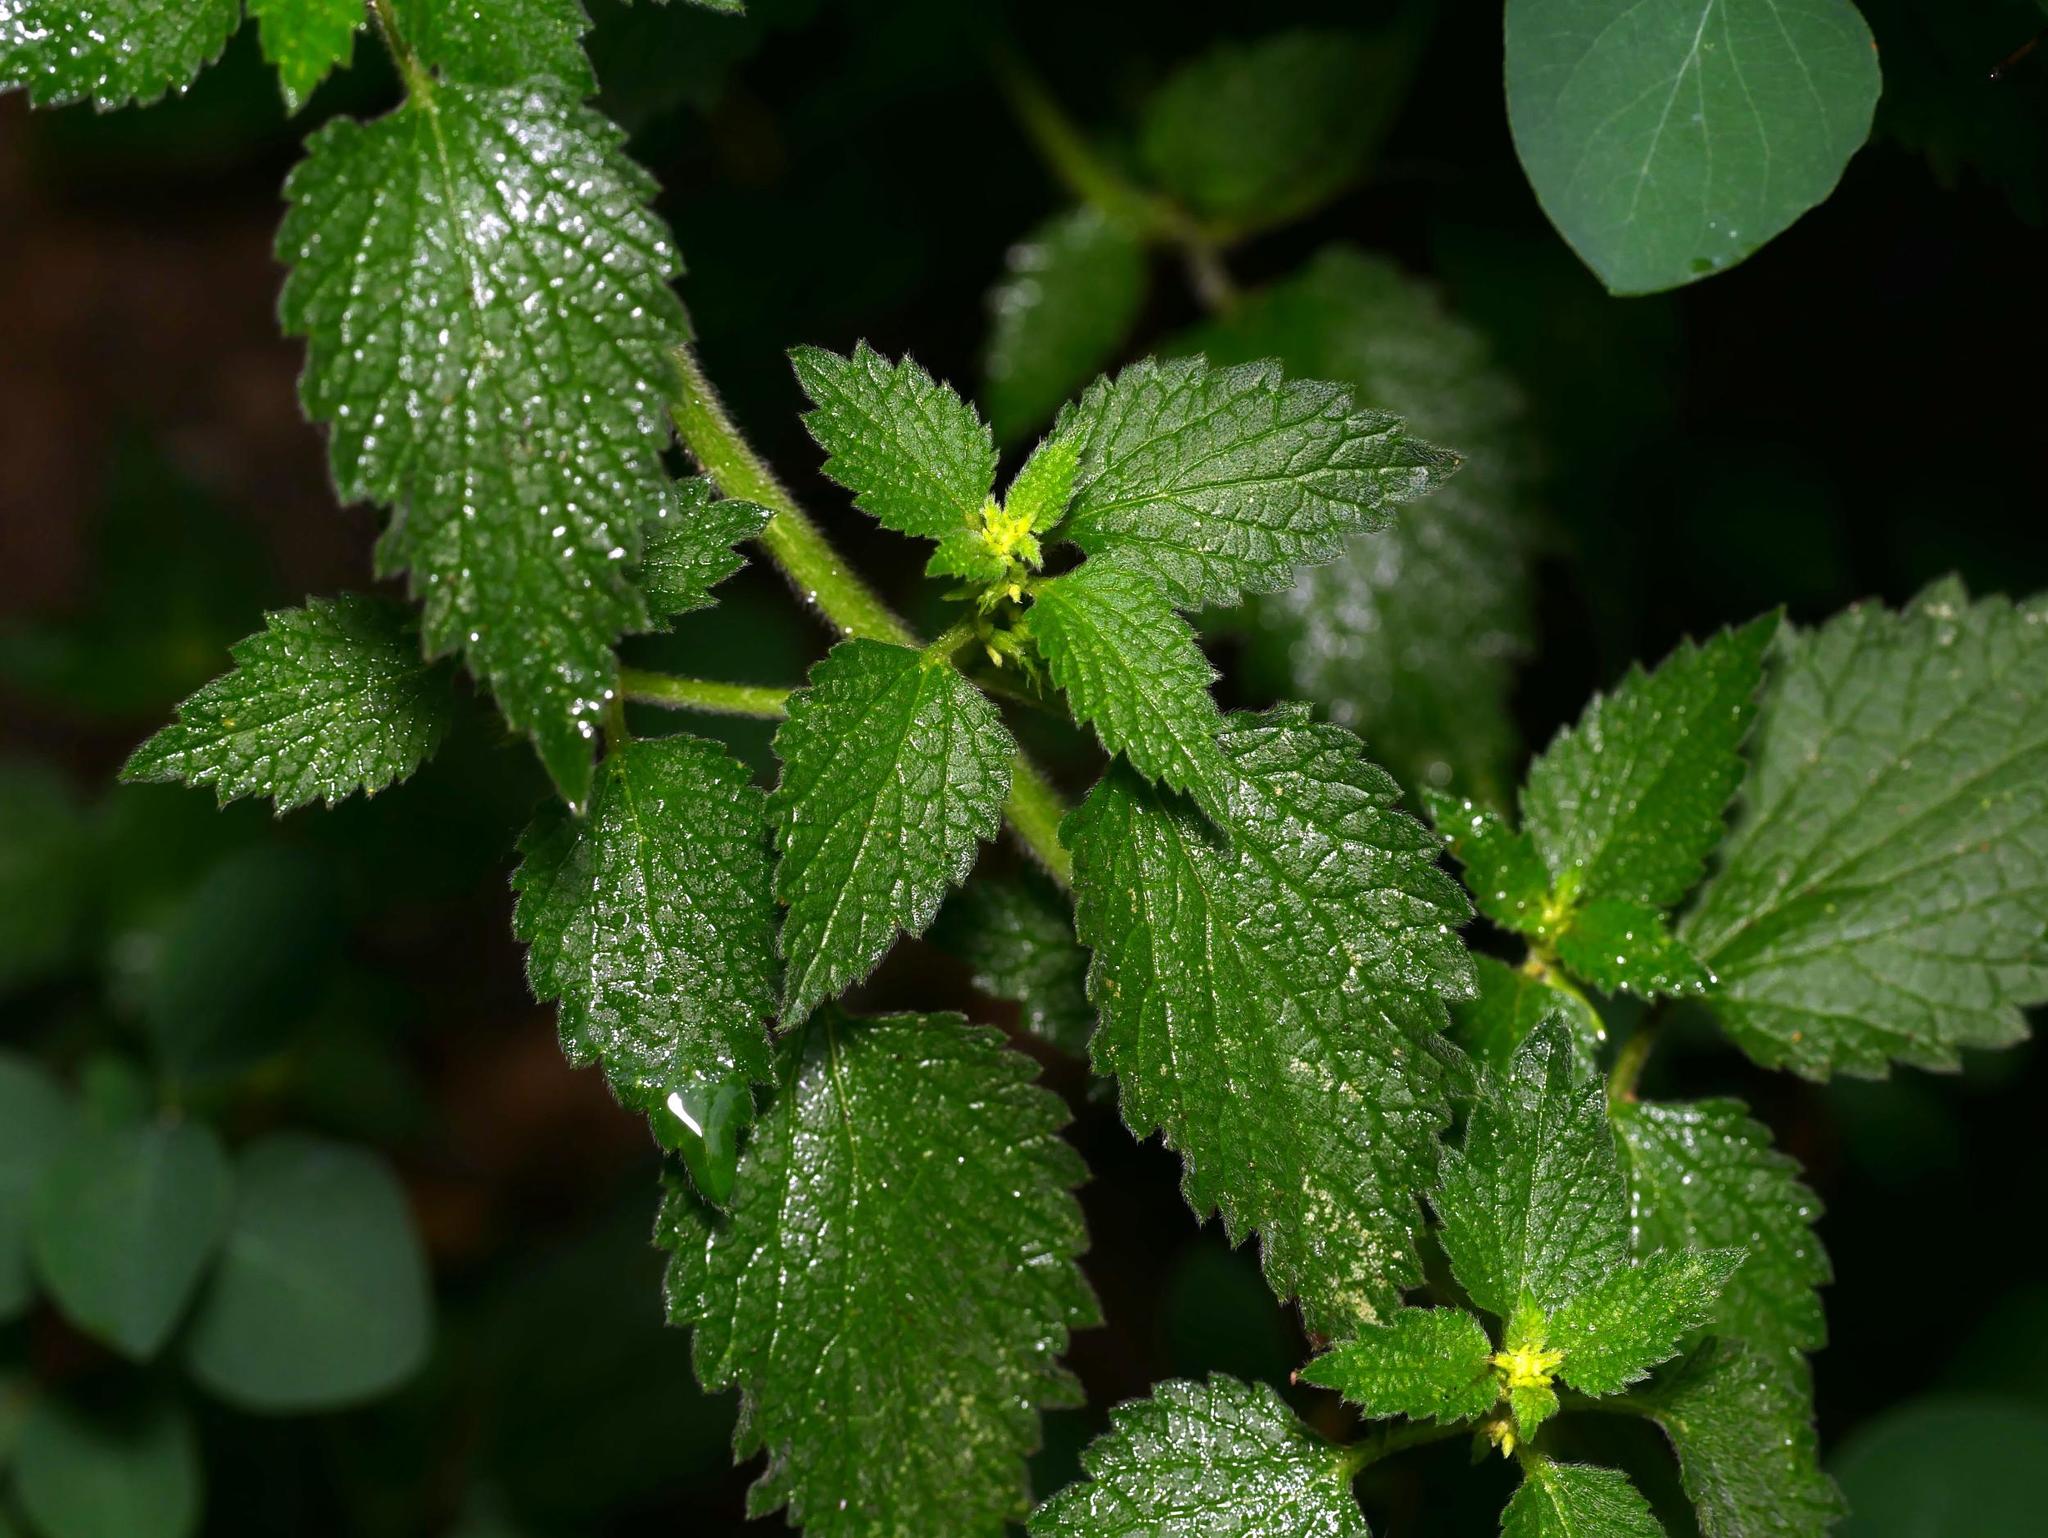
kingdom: Plantae
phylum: Tracheophyta
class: Magnoliopsida
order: Lamiales
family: Lamiaceae
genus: Ballota
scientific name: Ballota nigra
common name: Black horehound
